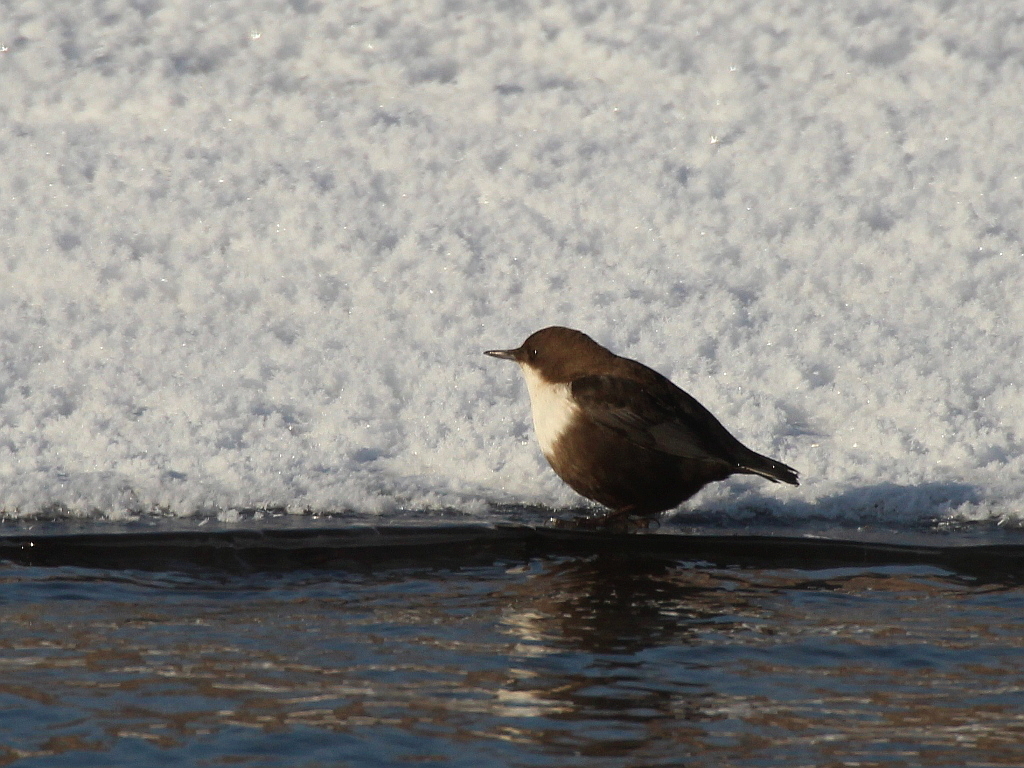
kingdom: Animalia
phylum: Chordata
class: Aves
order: Passeriformes
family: Cinclidae
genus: Cinclus
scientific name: Cinclus cinclus
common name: White-throated dipper
